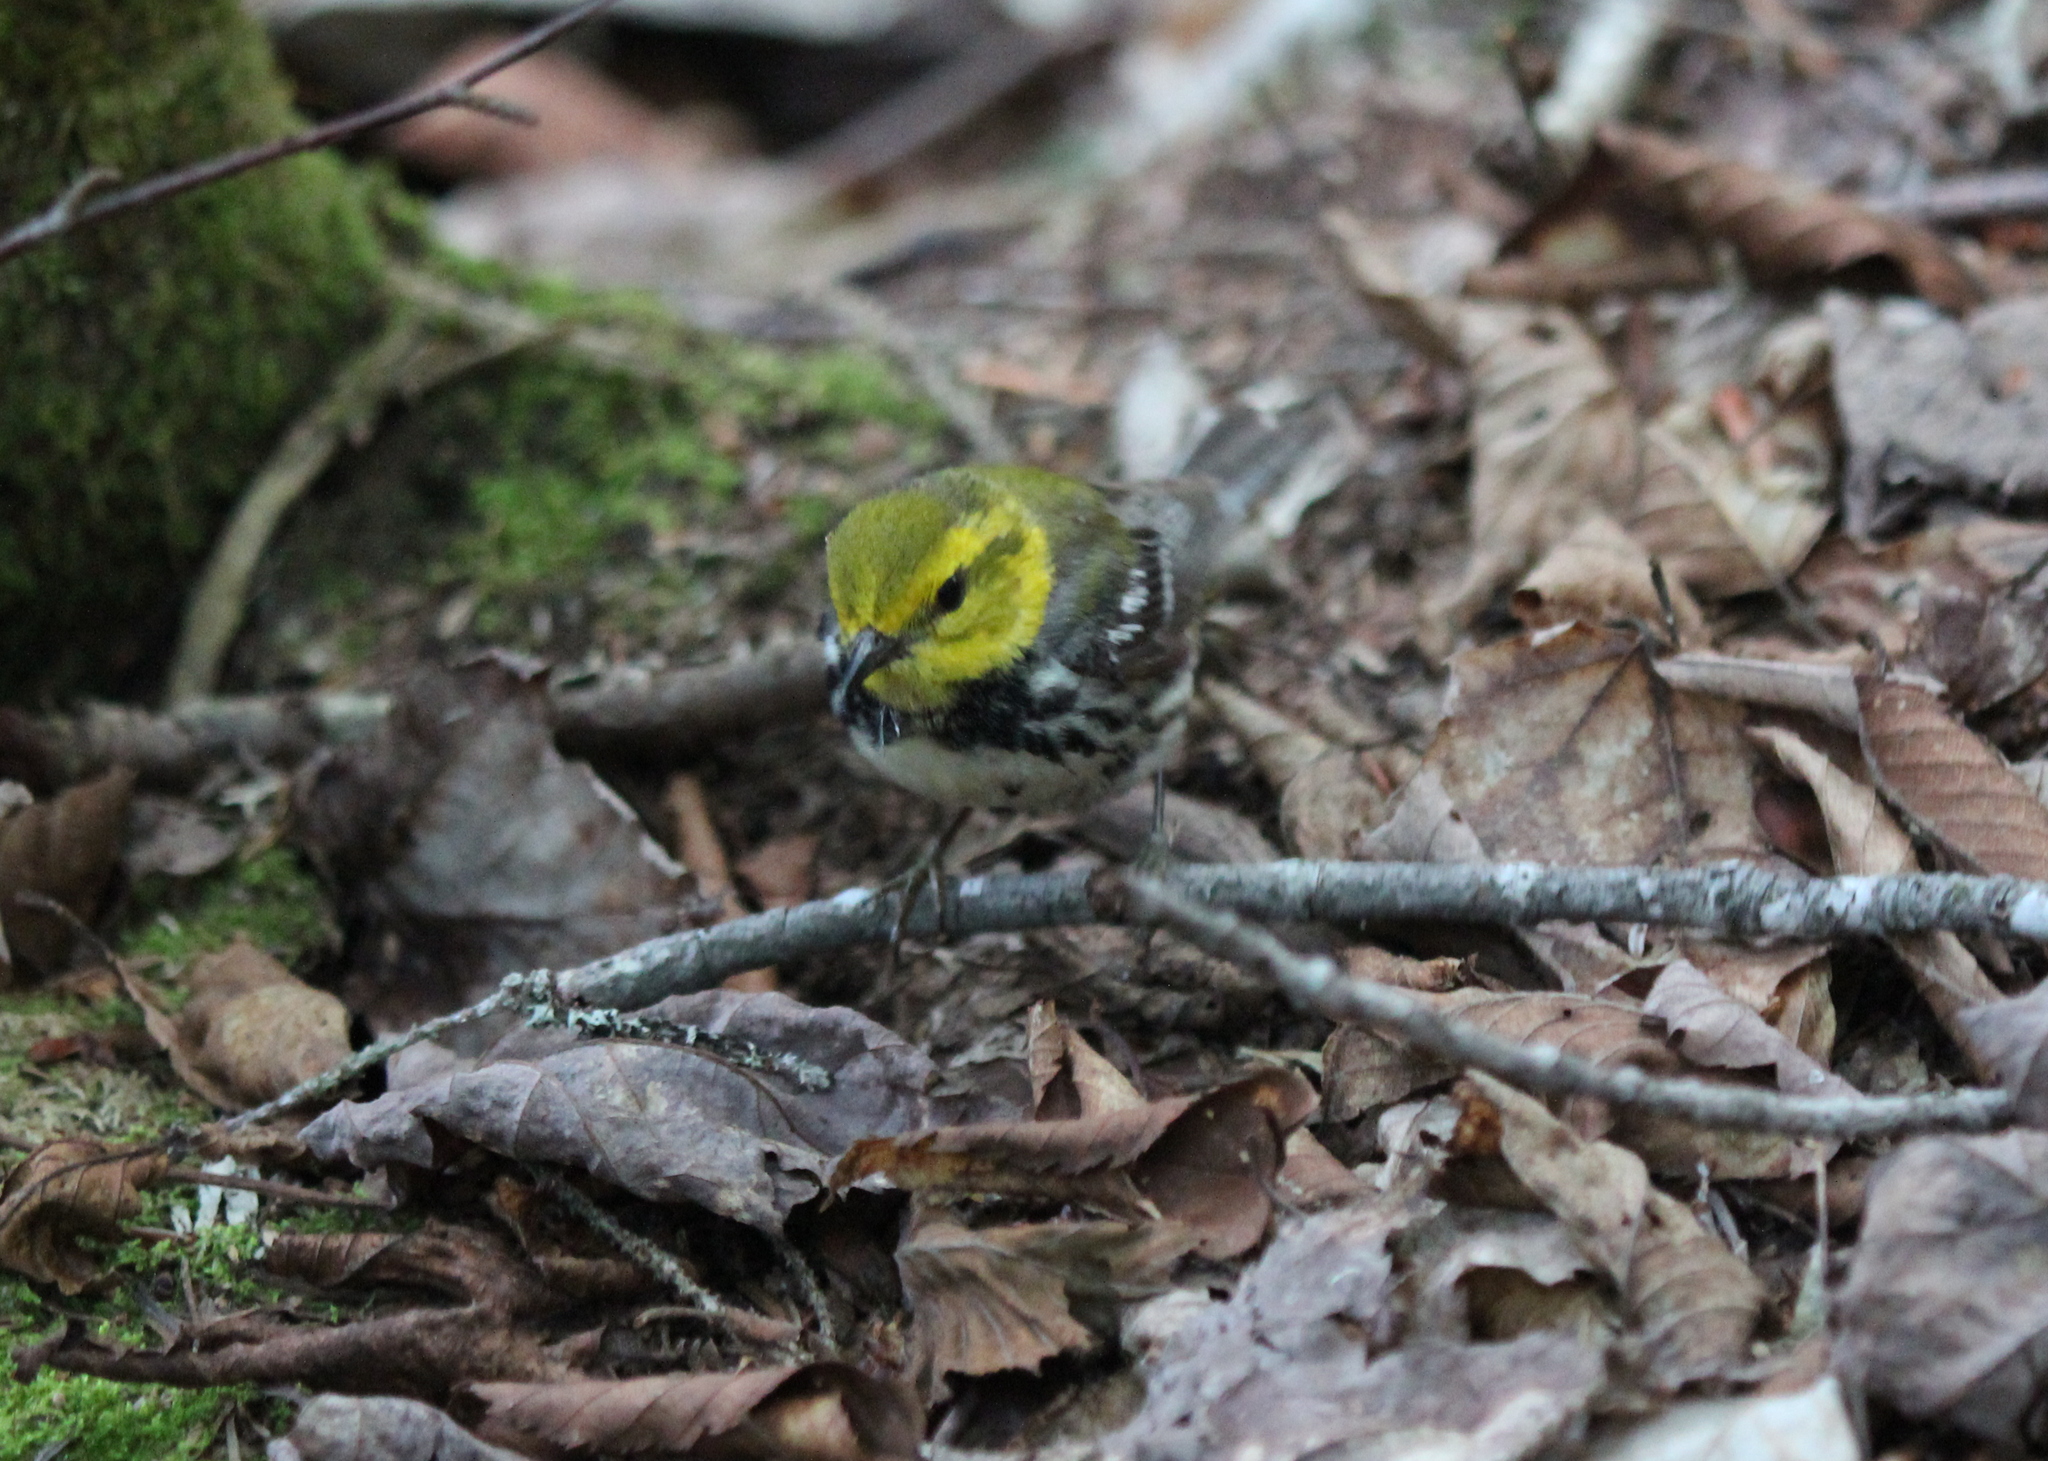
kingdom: Animalia
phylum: Chordata
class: Aves
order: Passeriformes
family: Parulidae
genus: Setophaga
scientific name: Setophaga virens
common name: Black-throated green warbler
